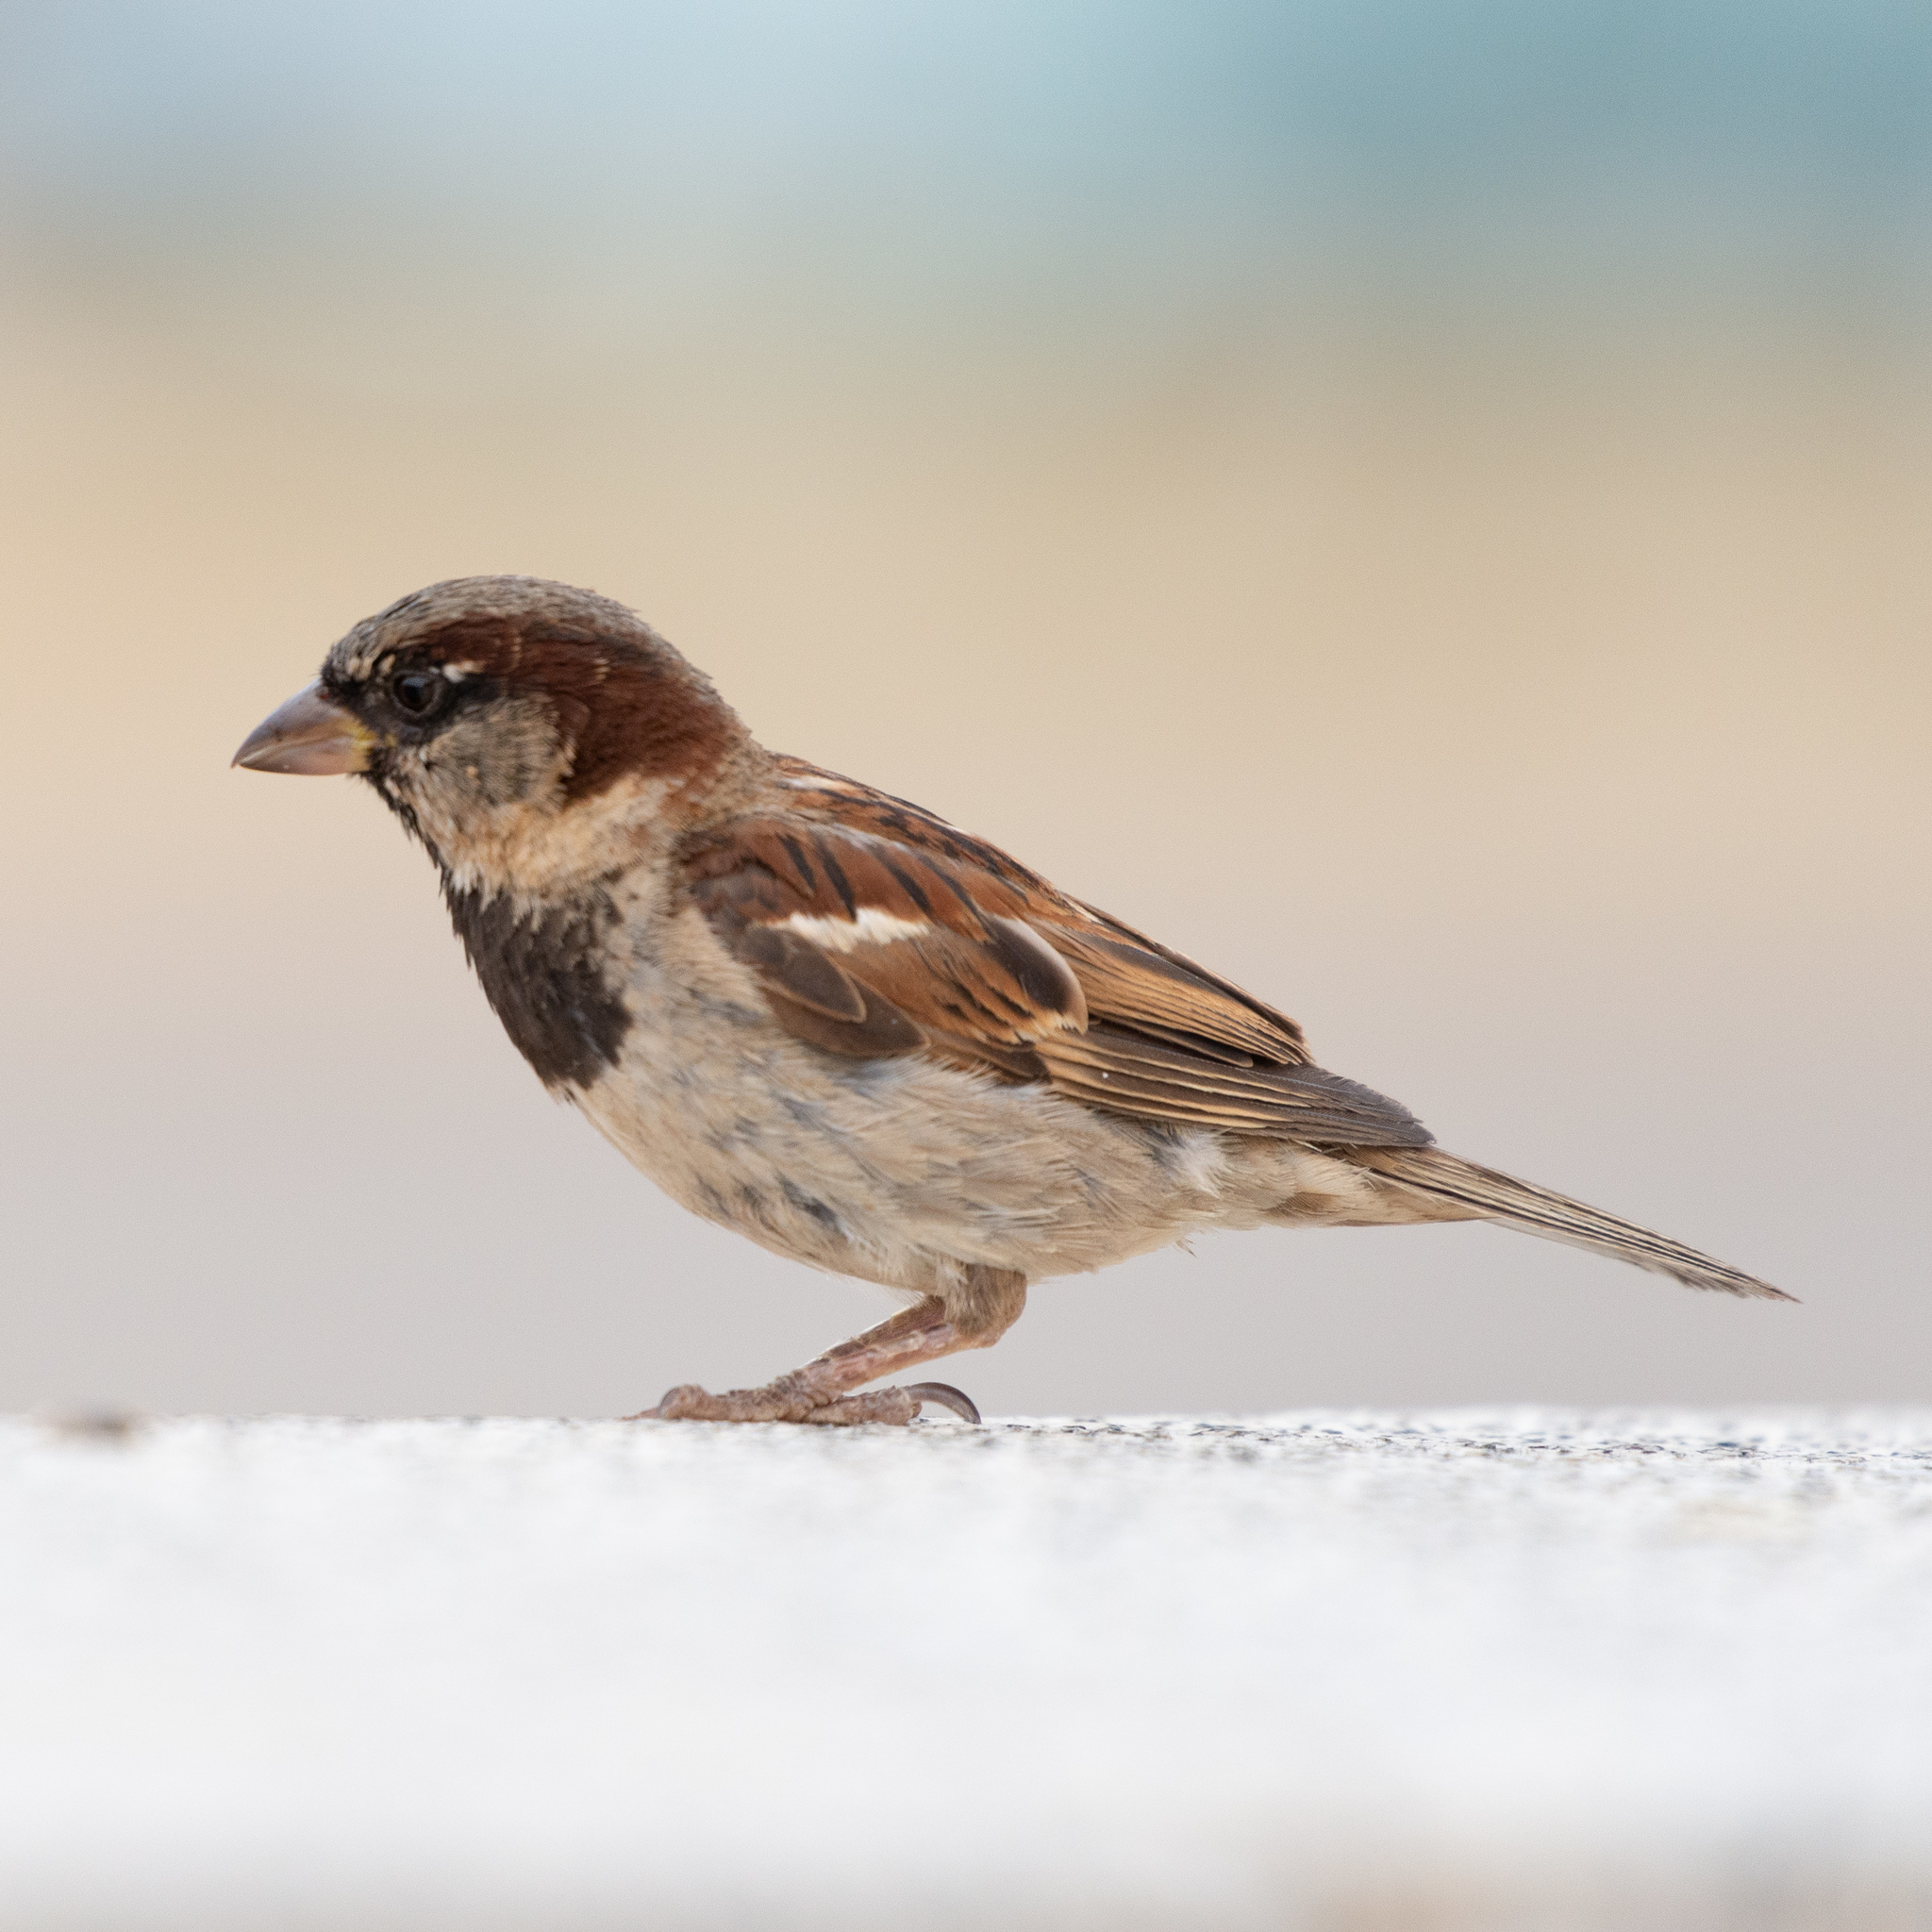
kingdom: Animalia
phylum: Chordata
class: Aves
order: Passeriformes
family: Passeridae
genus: Passer
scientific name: Passer domesticus
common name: House sparrow
